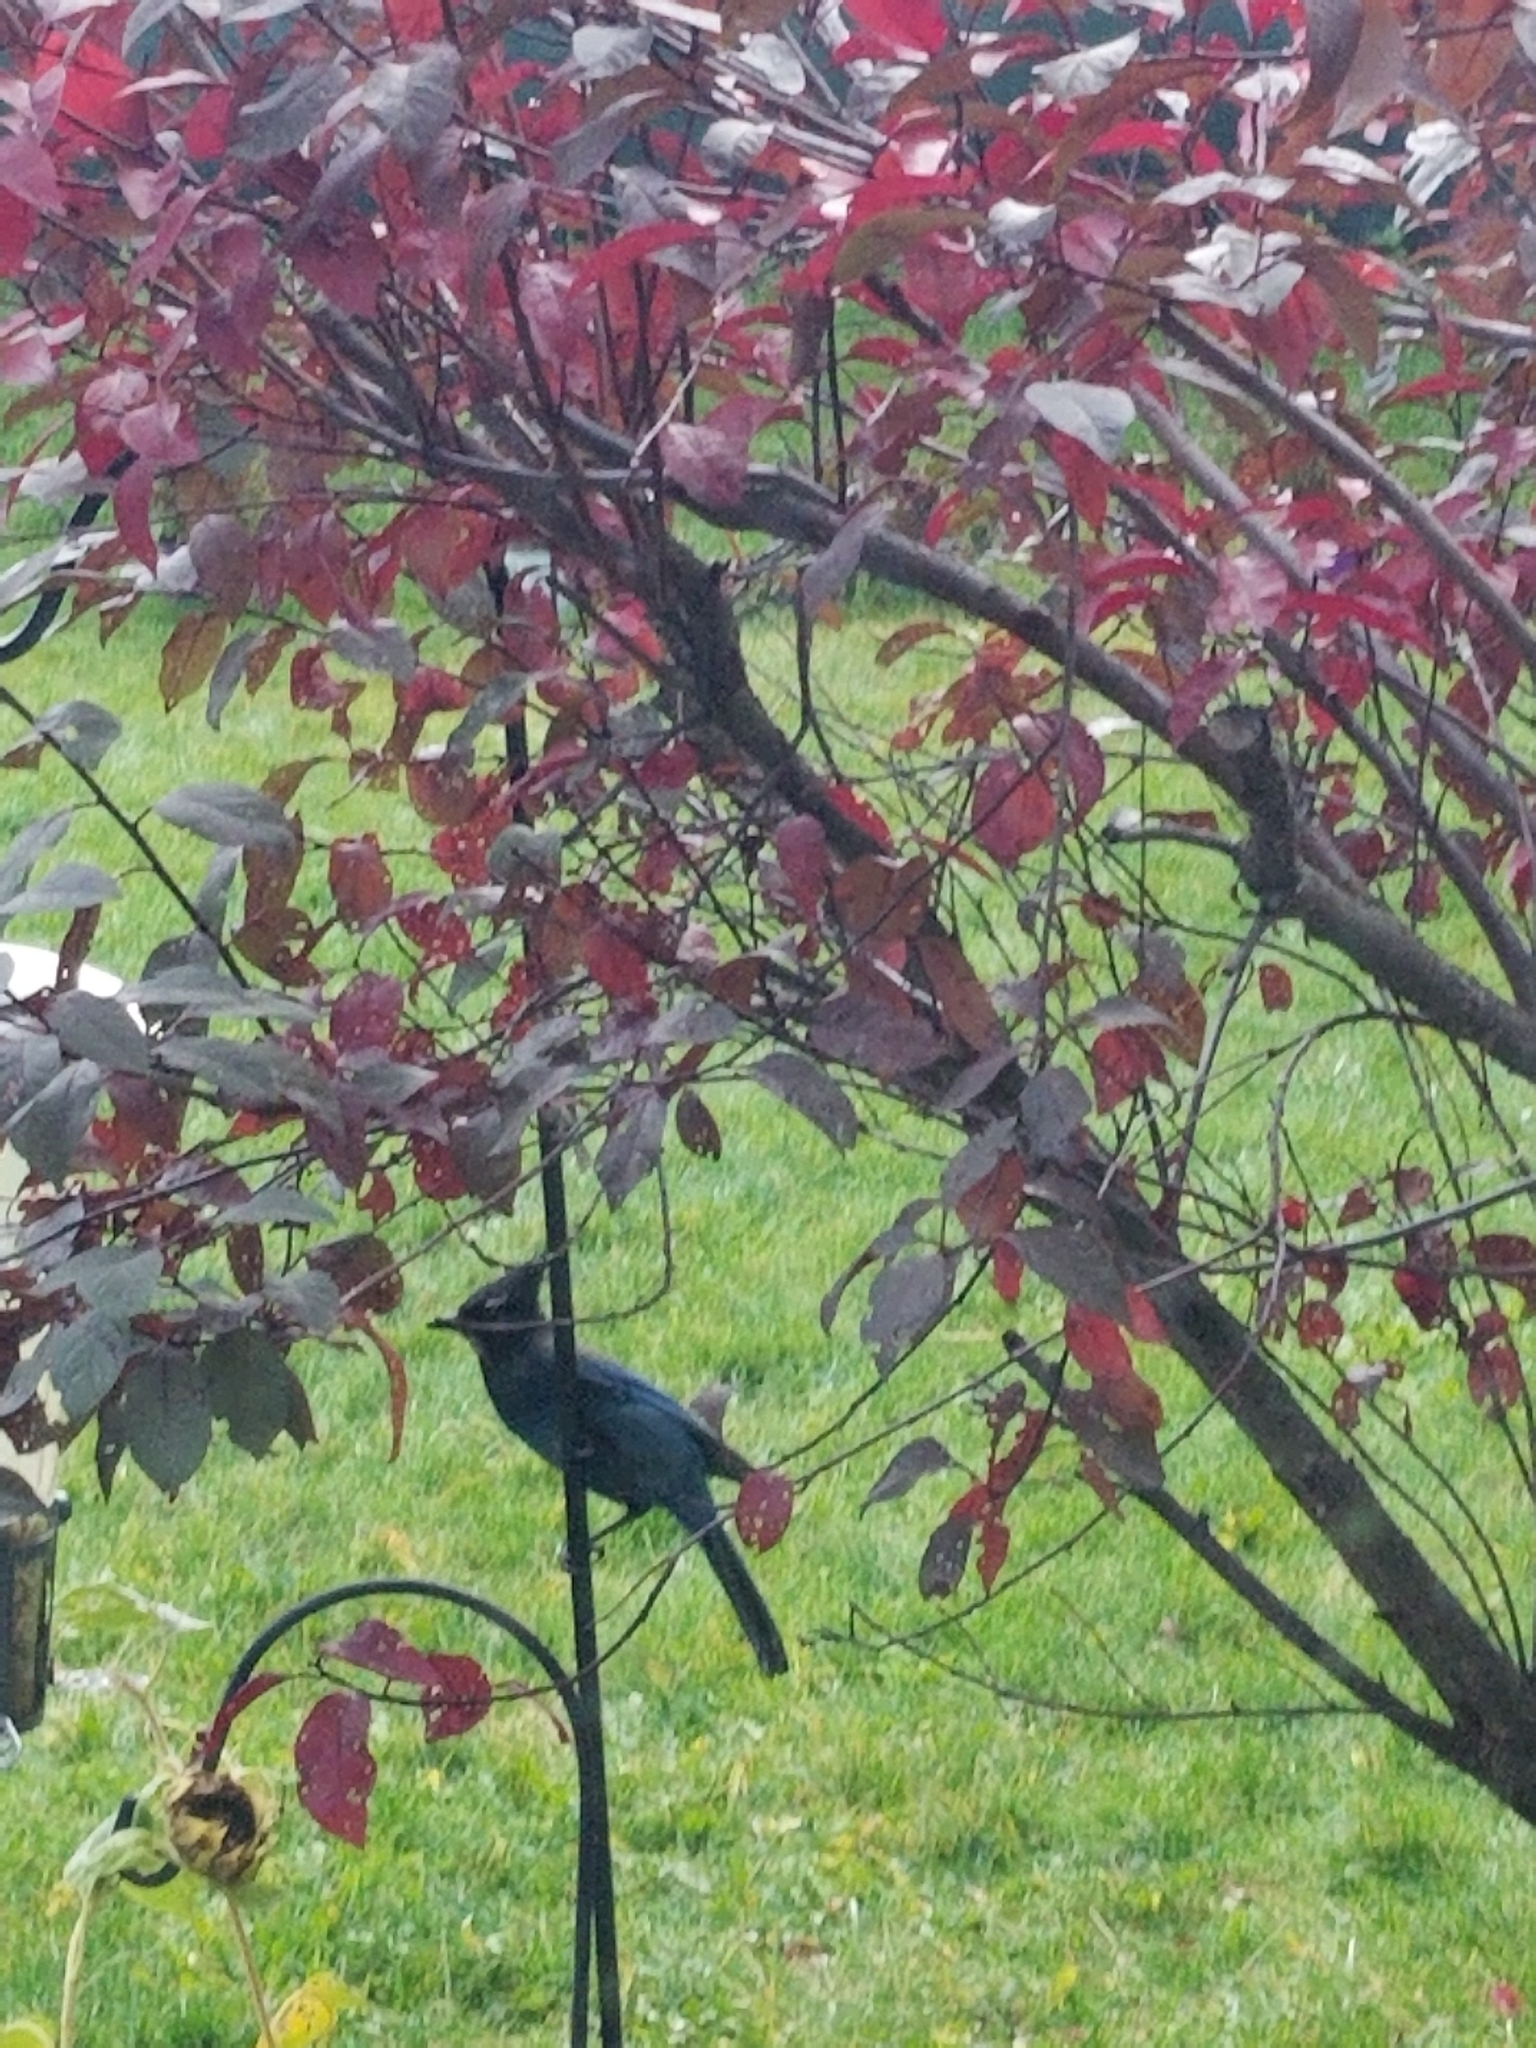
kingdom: Animalia
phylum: Chordata
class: Aves
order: Passeriformes
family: Corvidae
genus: Cyanocitta
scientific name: Cyanocitta stelleri
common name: Steller's jay
